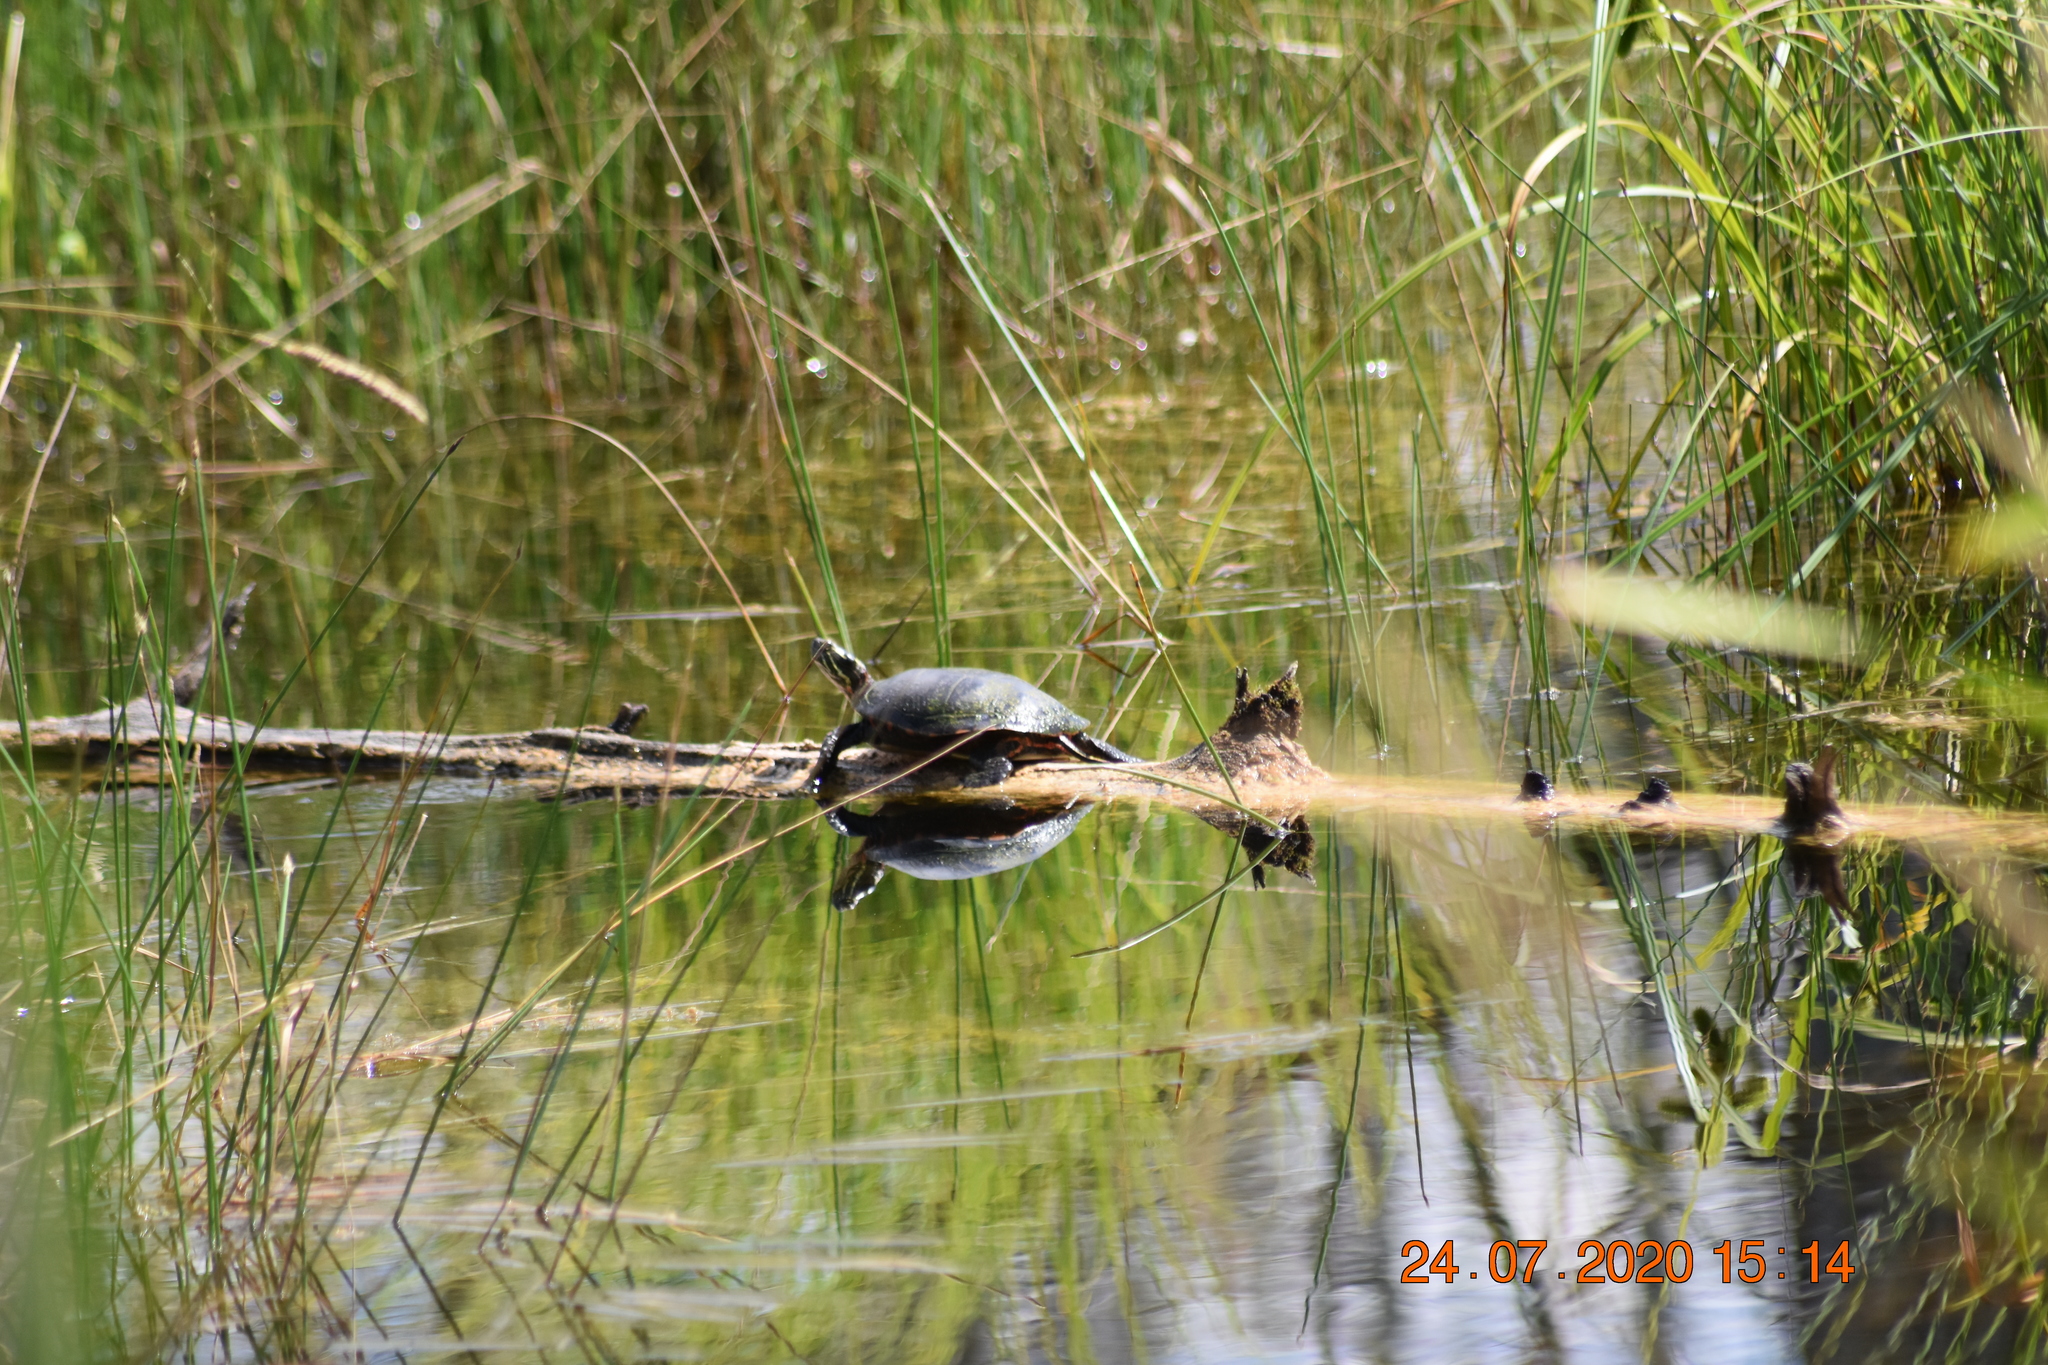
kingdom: Animalia
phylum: Chordata
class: Testudines
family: Emydidae
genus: Chrysemys
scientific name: Chrysemys picta
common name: Painted turtle
